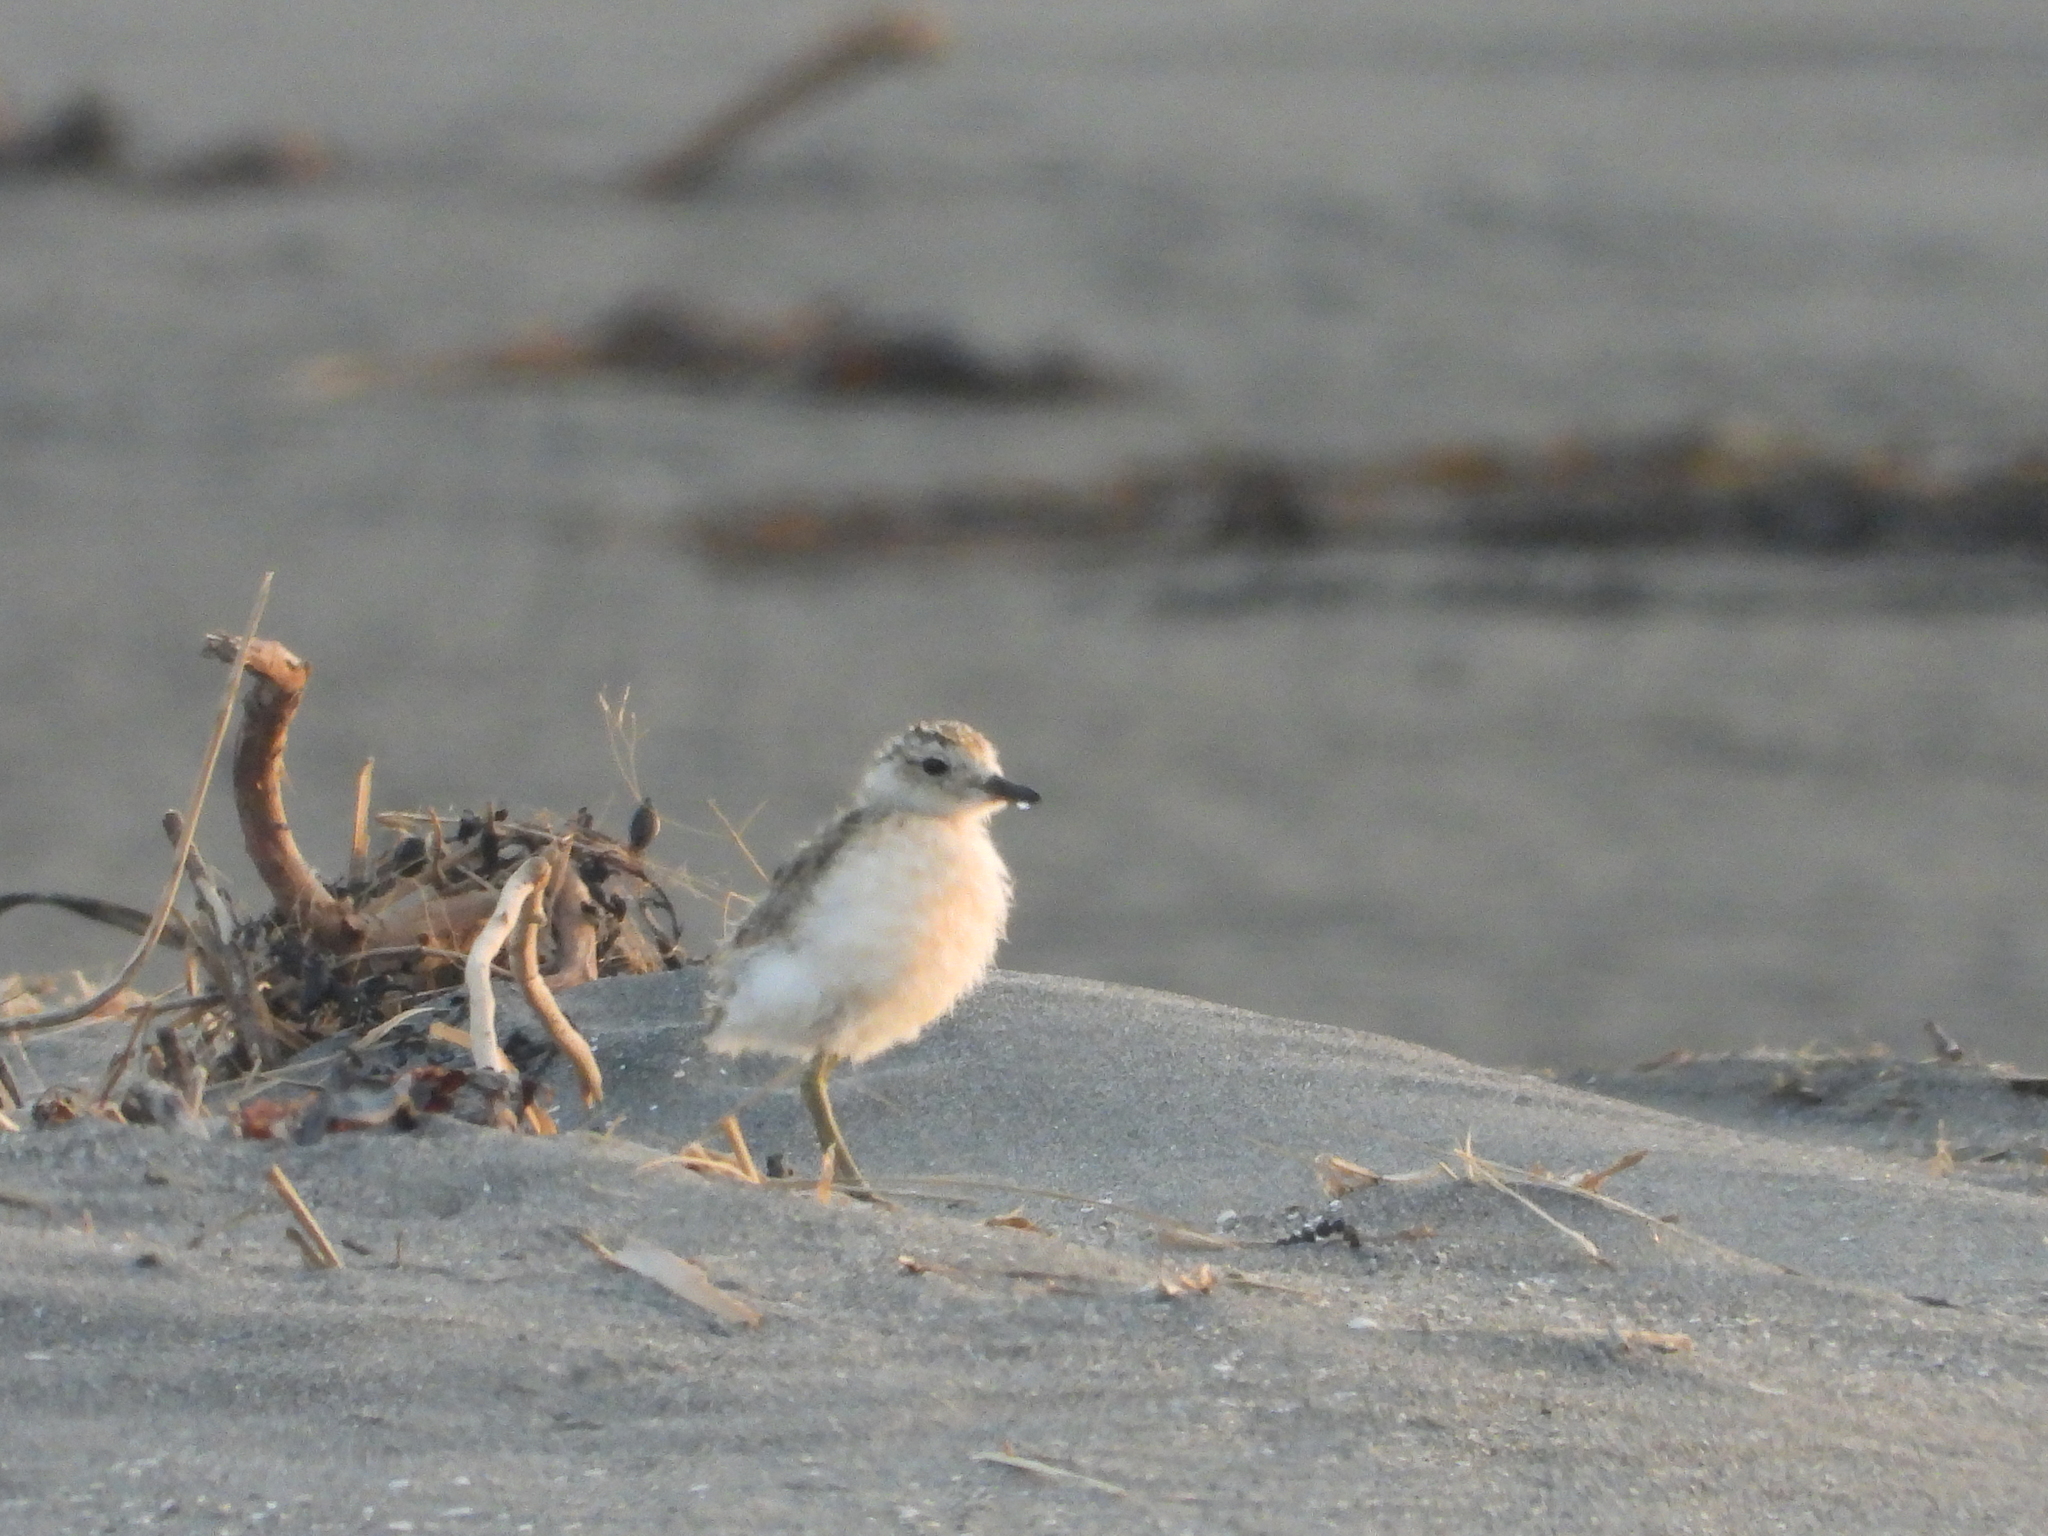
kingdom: Animalia
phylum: Chordata
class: Aves
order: Charadriiformes
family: Charadriidae
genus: Anarhynchus
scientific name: Anarhynchus
